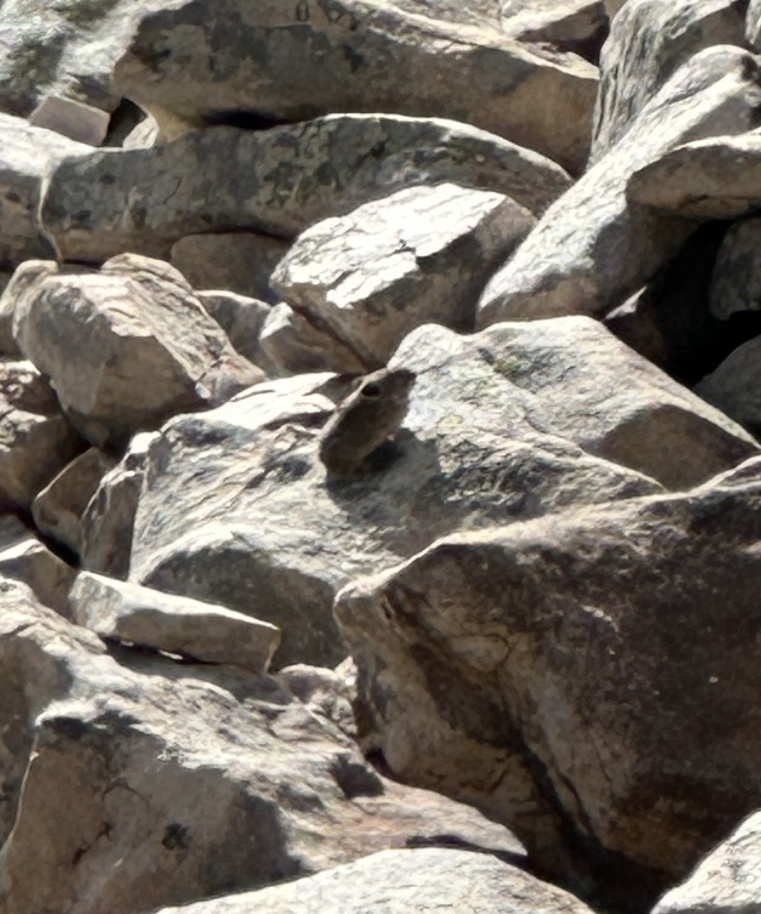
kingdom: Animalia
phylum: Chordata
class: Mammalia
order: Lagomorpha
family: Ochotonidae
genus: Ochotona
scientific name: Ochotona princeps
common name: American pika
